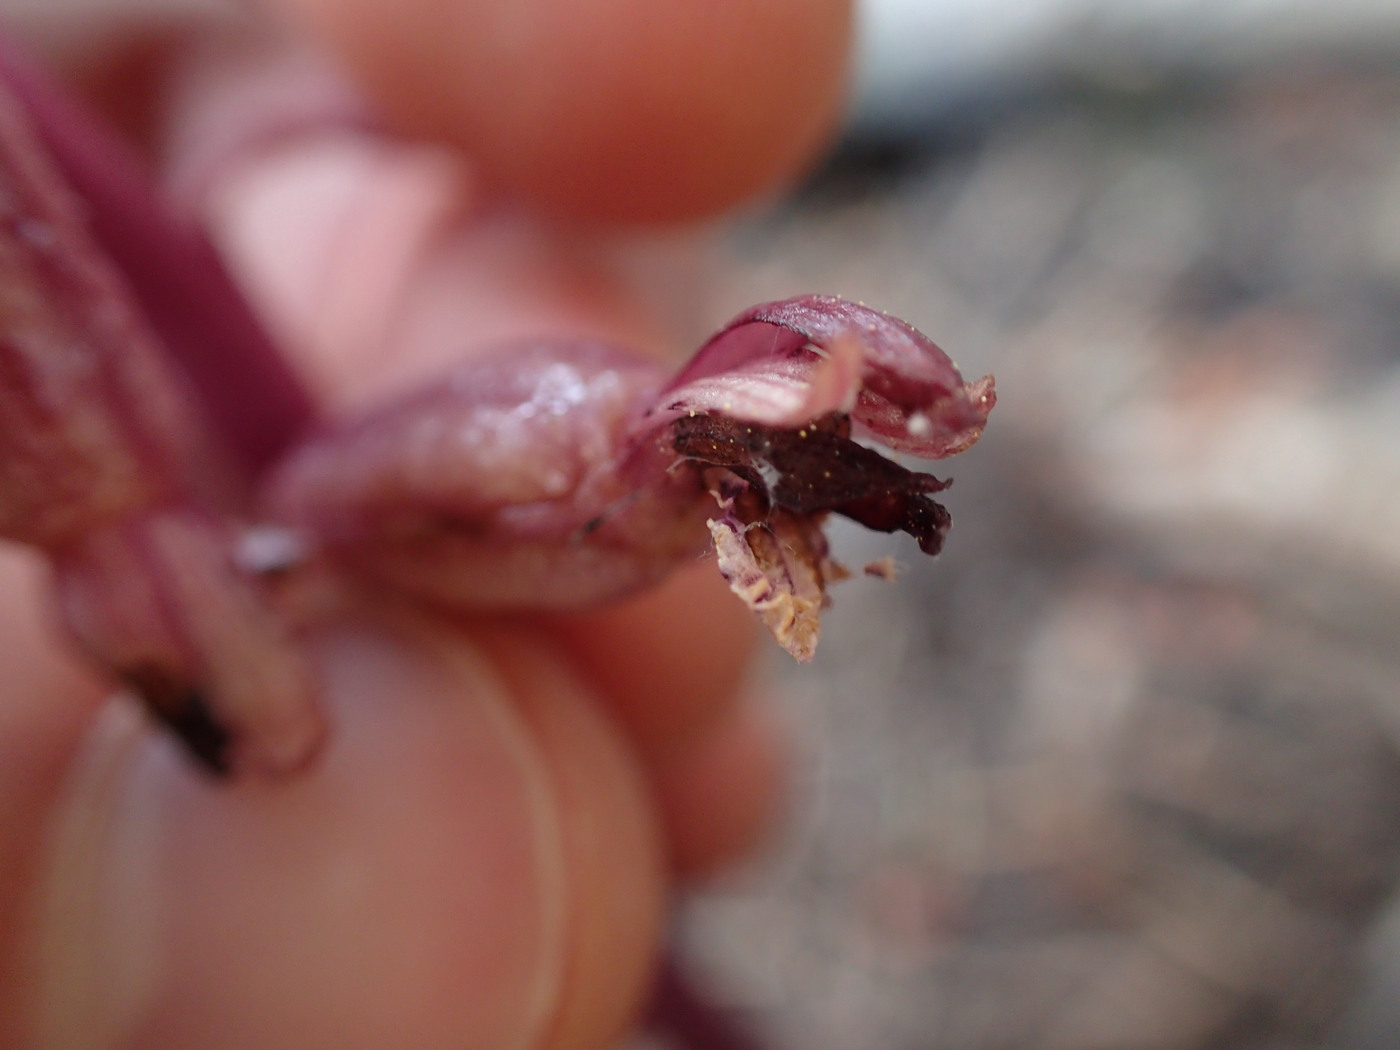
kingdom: Plantae
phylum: Tracheophyta
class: Liliopsida
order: Asparagales
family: Orchidaceae
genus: Corallorhiza
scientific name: Corallorhiza maculata
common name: Spotted coralroot
